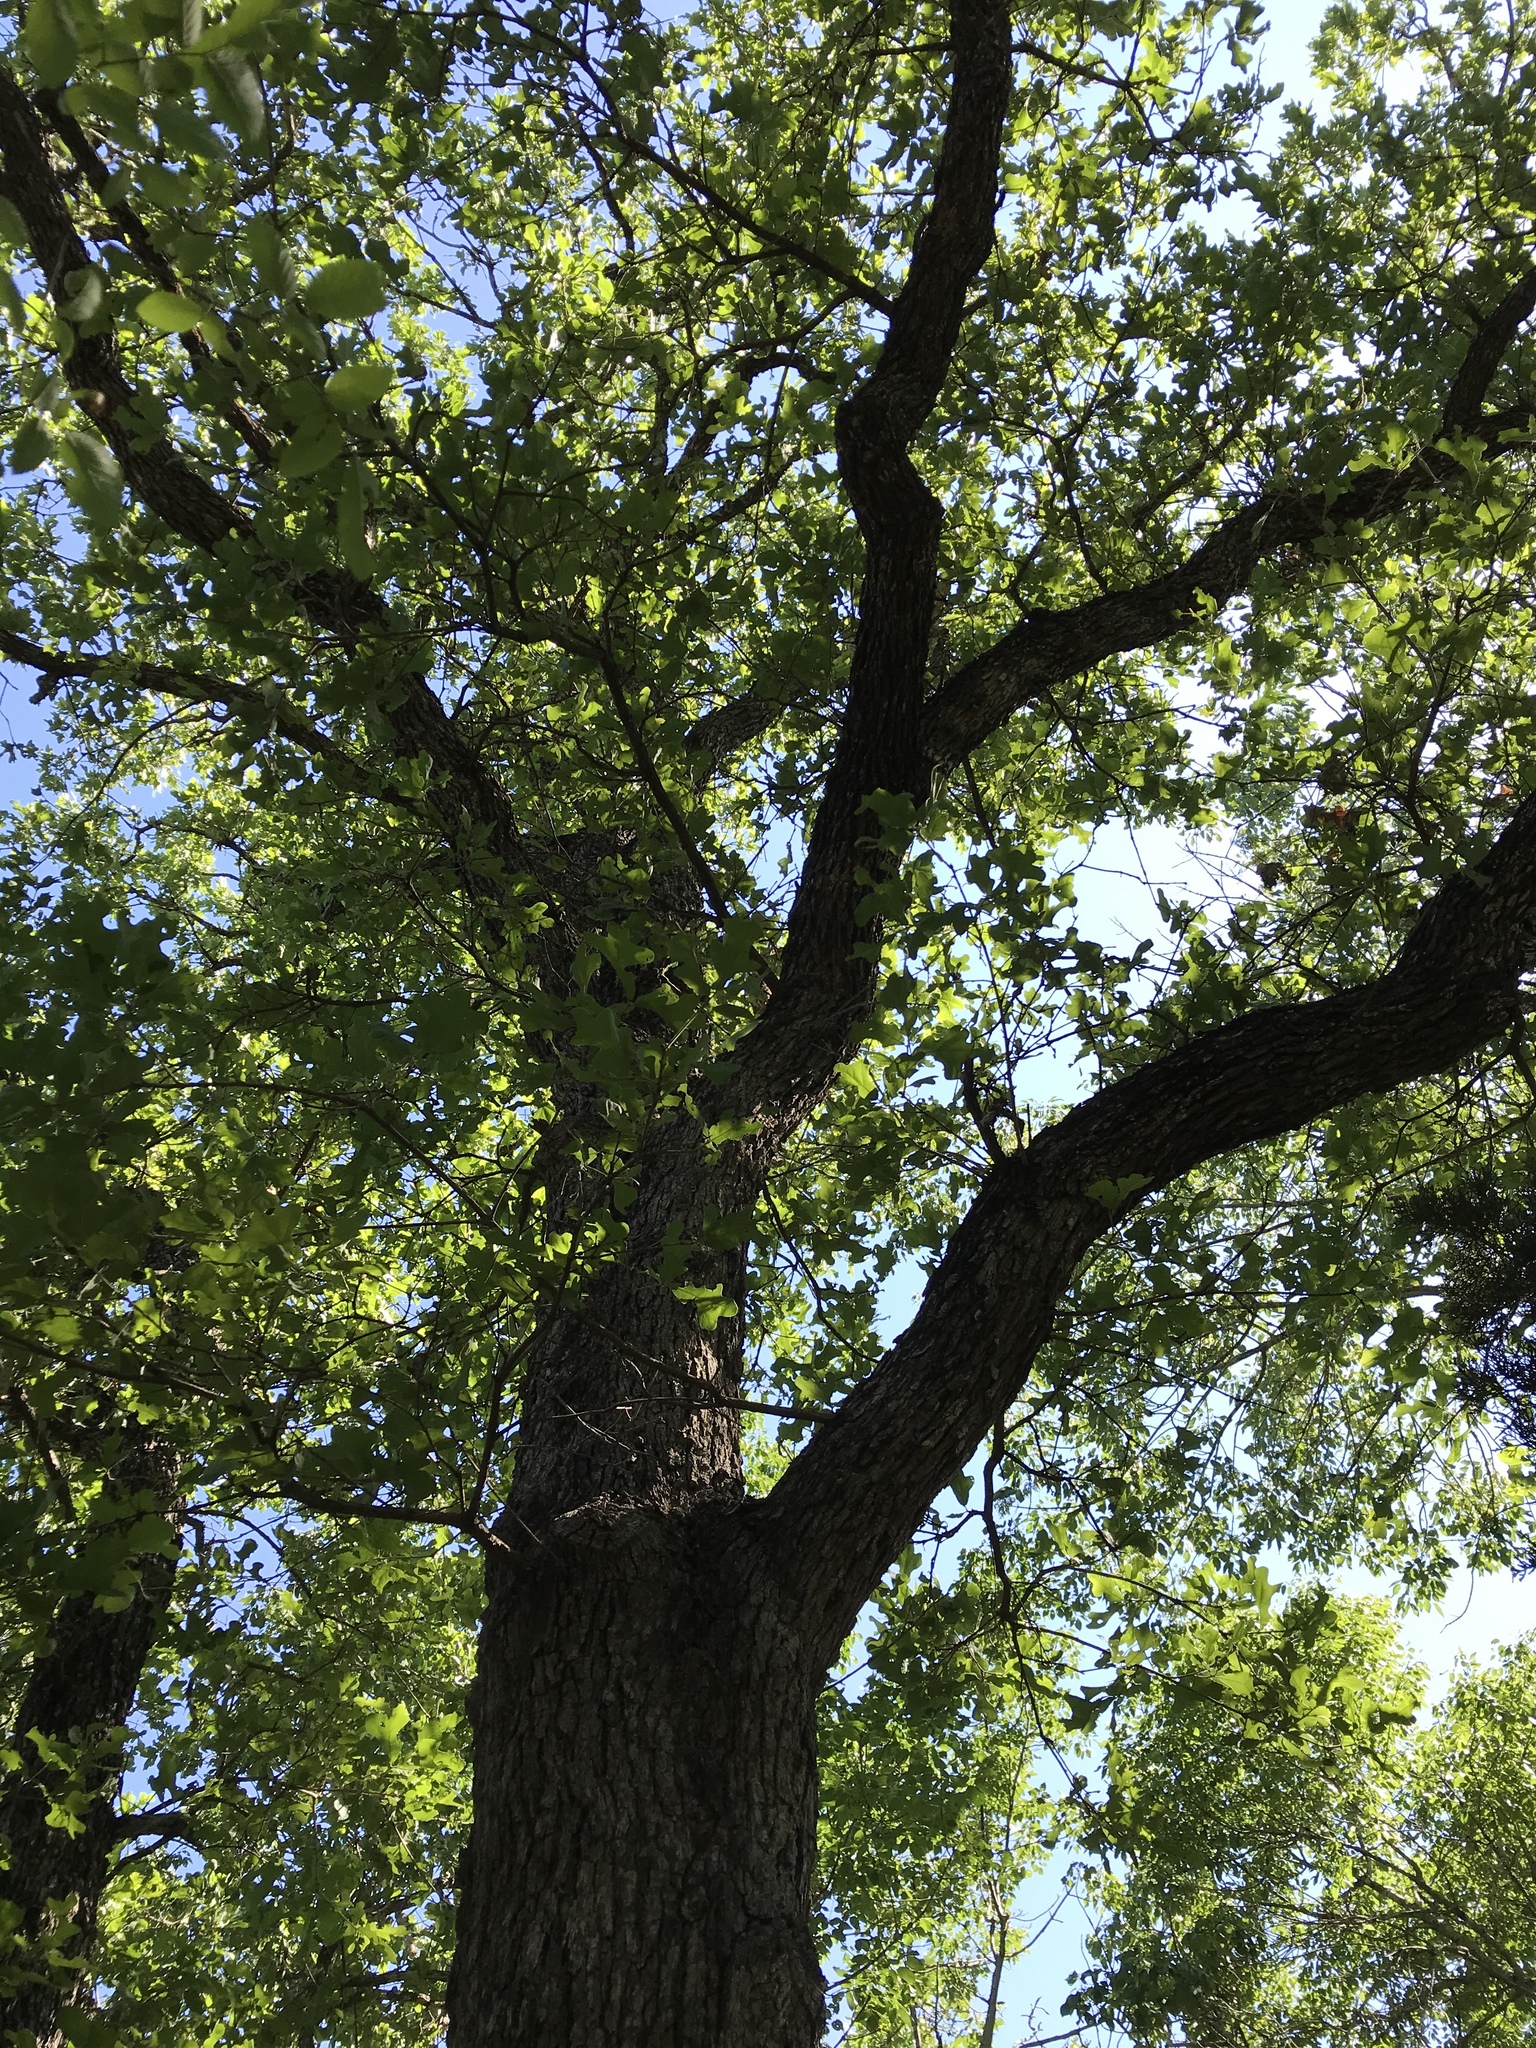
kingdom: Plantae
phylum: Tracheophyta
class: Magnoliopsida
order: Fagales
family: Fagaceae
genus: Quercus
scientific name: Quercus stellata
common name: Post oak
